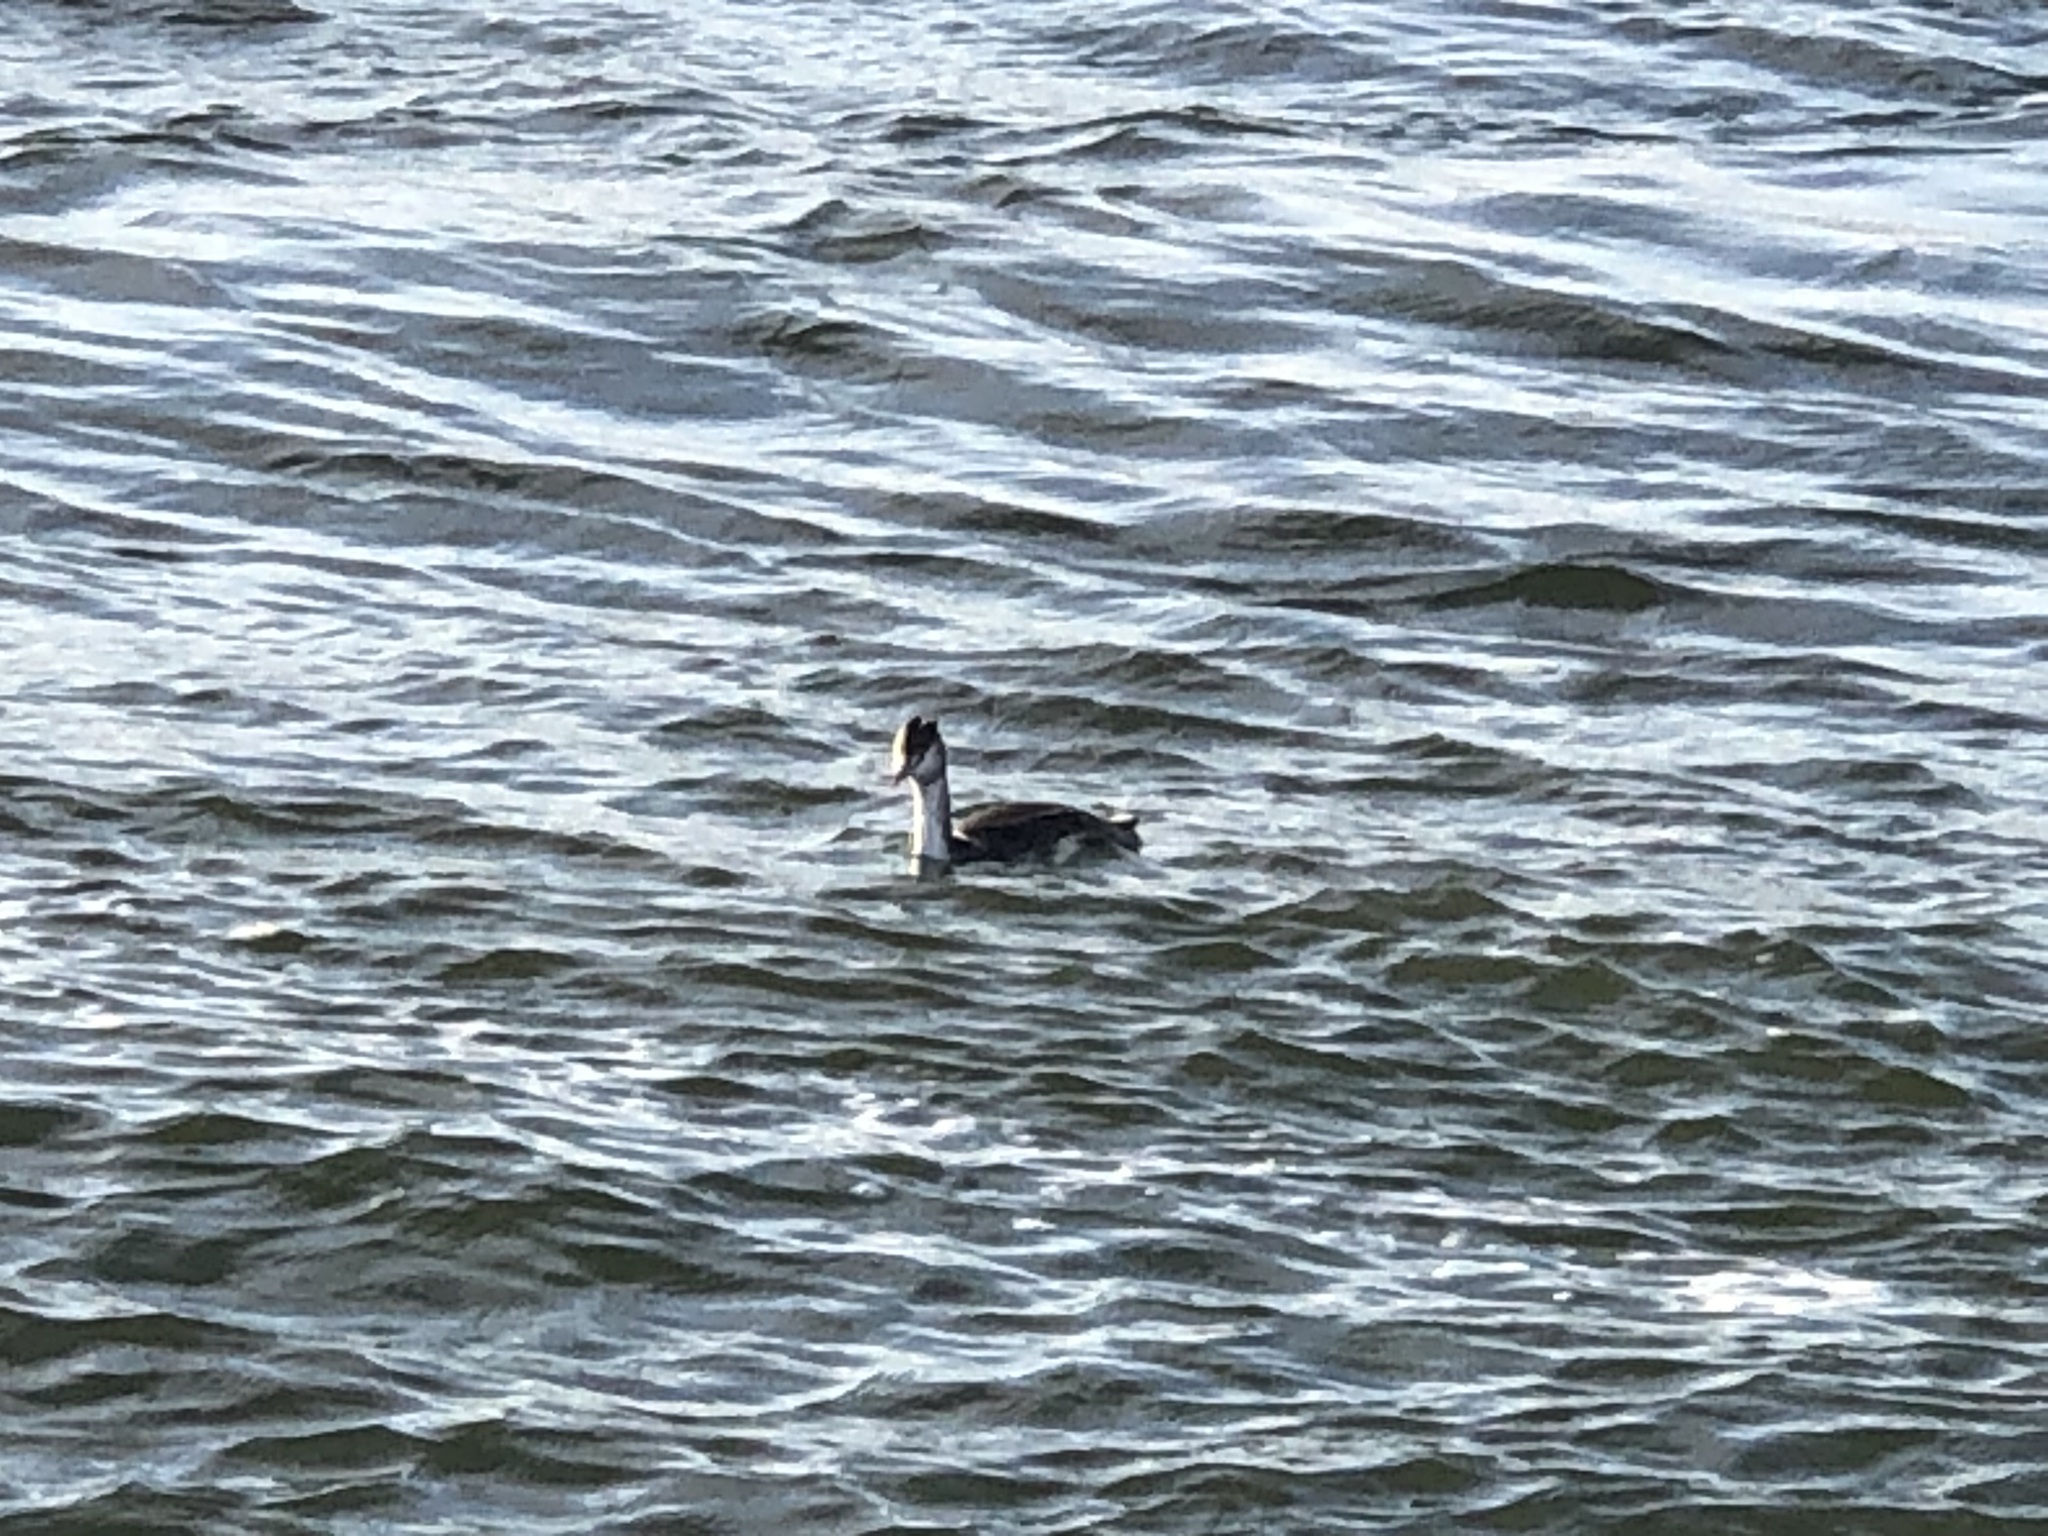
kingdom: Animalia
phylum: Chordata
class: Aves
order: Podicipediformes
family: Podicipedidae
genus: Podiceps
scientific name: Podiceps cristatus
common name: Great crested grebe
